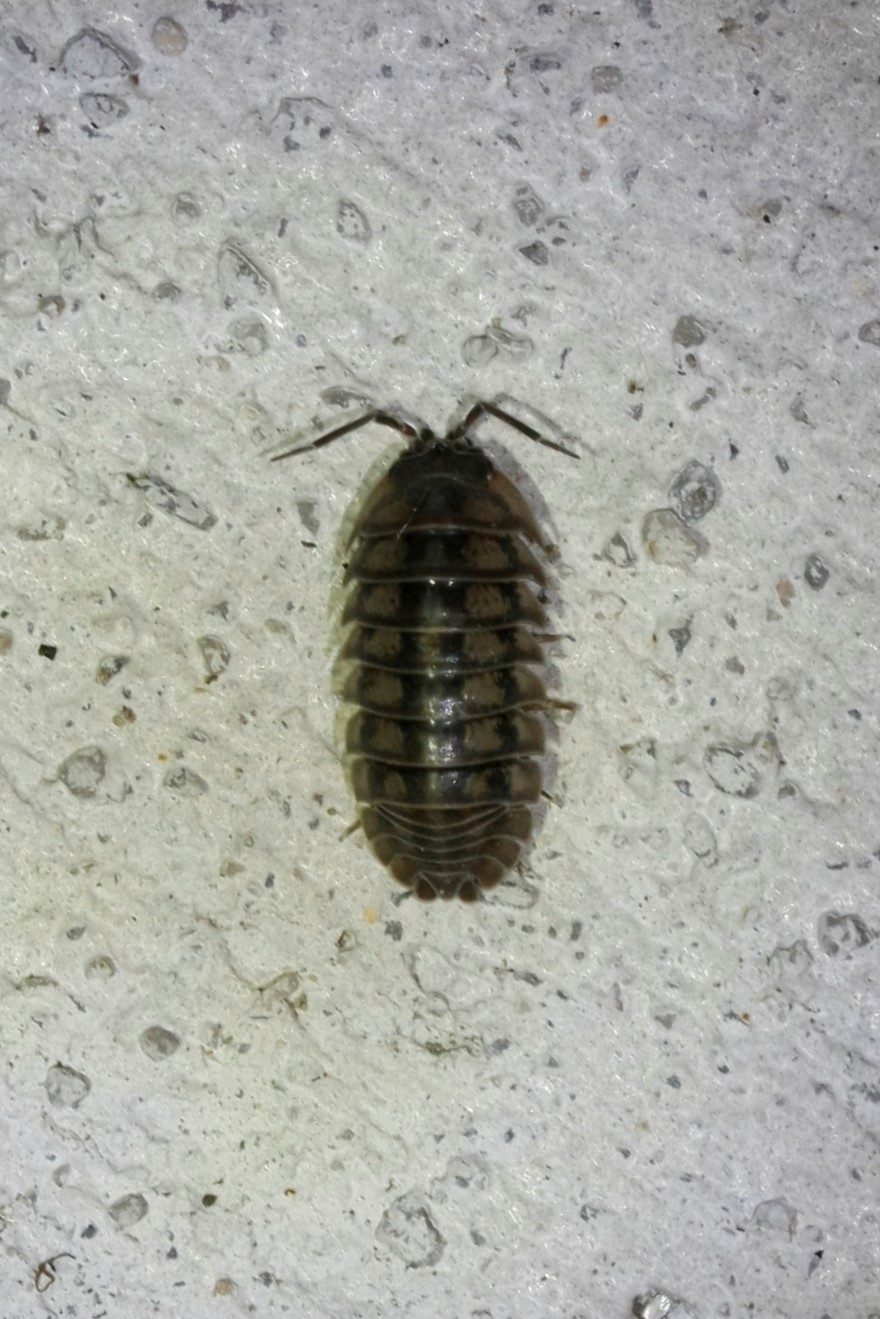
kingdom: Animalia
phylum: Arthropoda
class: Malacostraca
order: Isopoda
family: Armadillidiidae
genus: Armadillidium
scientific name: Armadillidium nasatum
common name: Isopod
